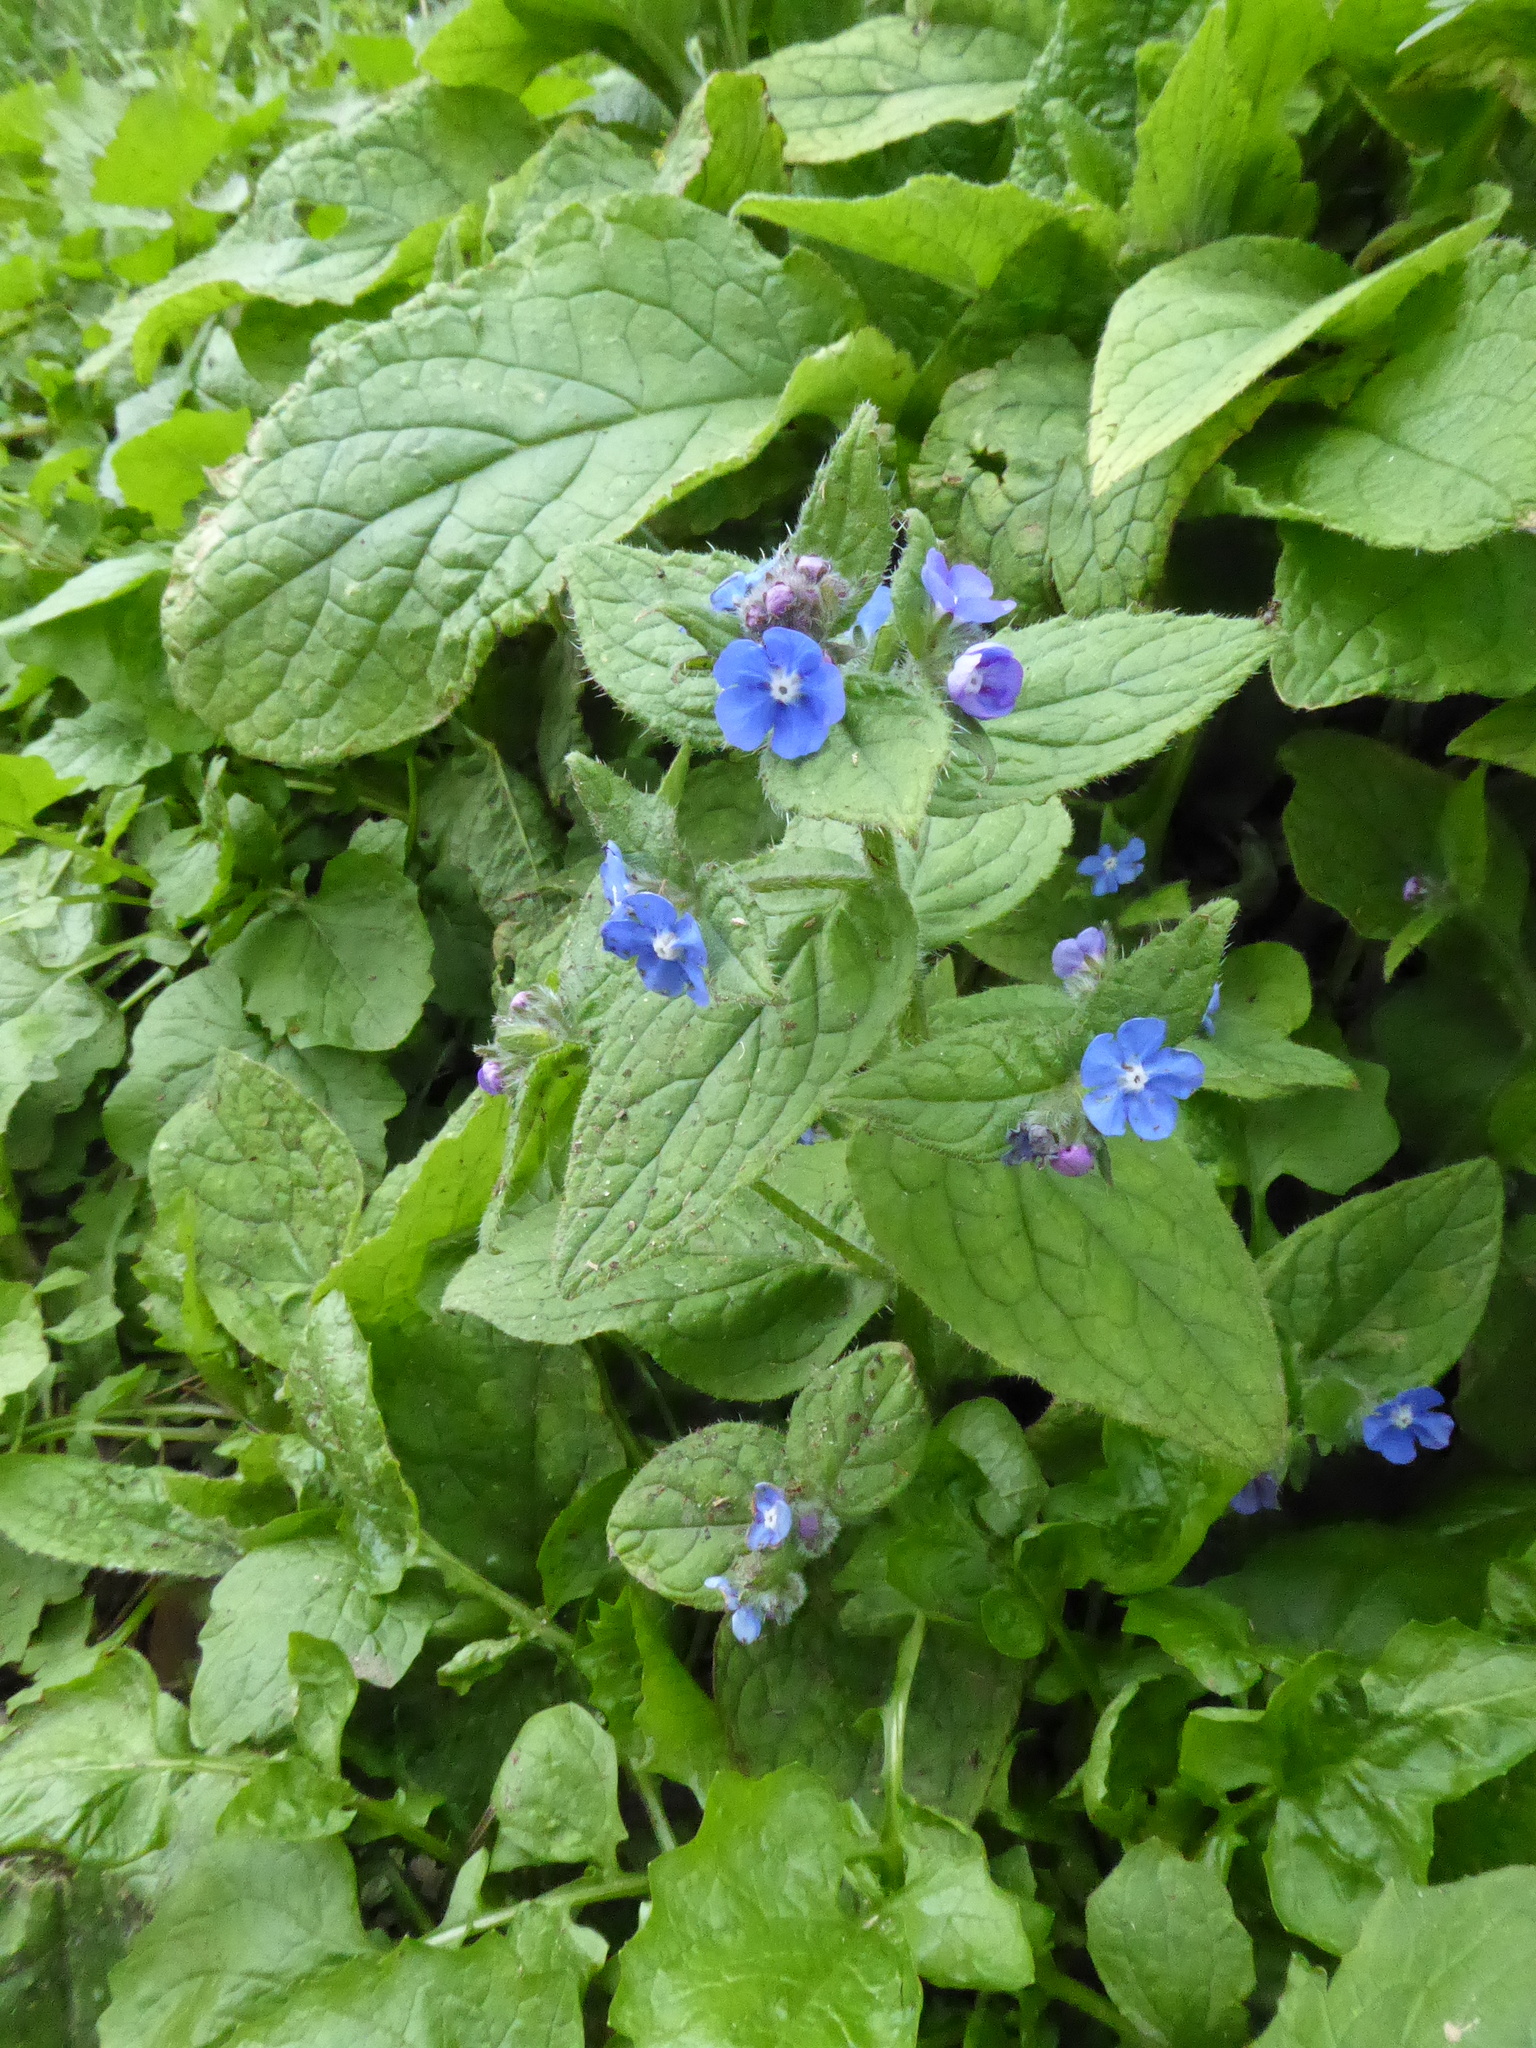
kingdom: Plantae
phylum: Tracheophyta
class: Magnoliopsida
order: Boraginales
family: Boraginaceae
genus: Pentaglottis
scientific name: Pentaglottis sempervirens
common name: Green alkanet
